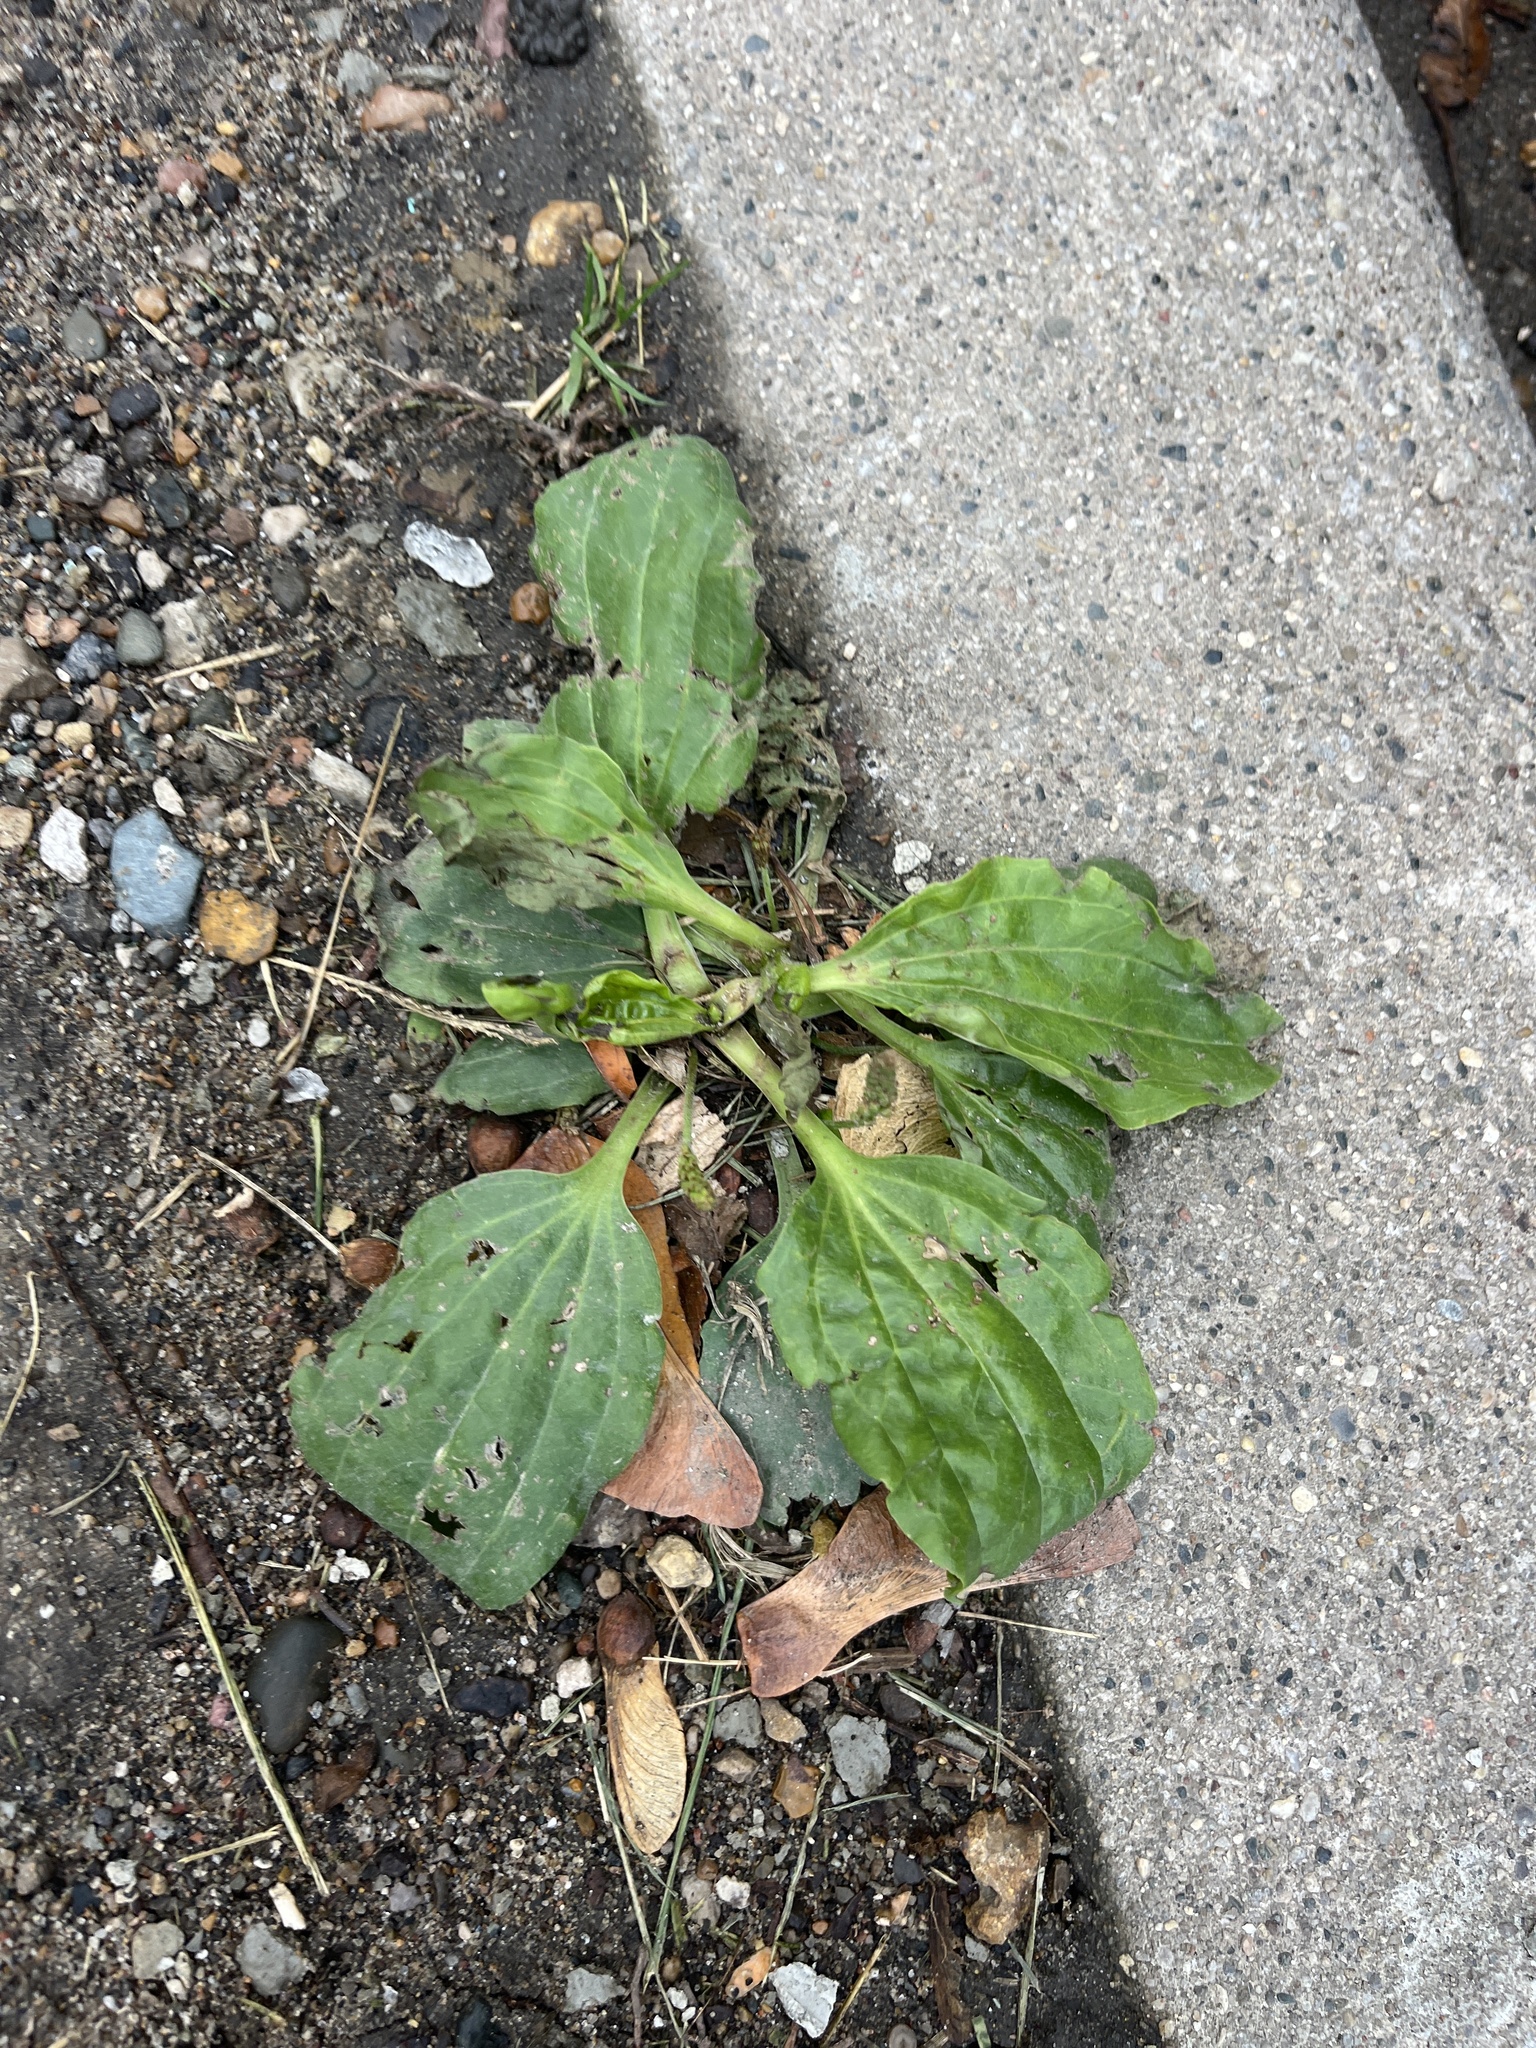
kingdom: Plantae
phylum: Tracheophyta
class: Magnoliopsida
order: Lamiales
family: Plantaginaceae
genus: Plantago
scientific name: Plantago major
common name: Common plantain
